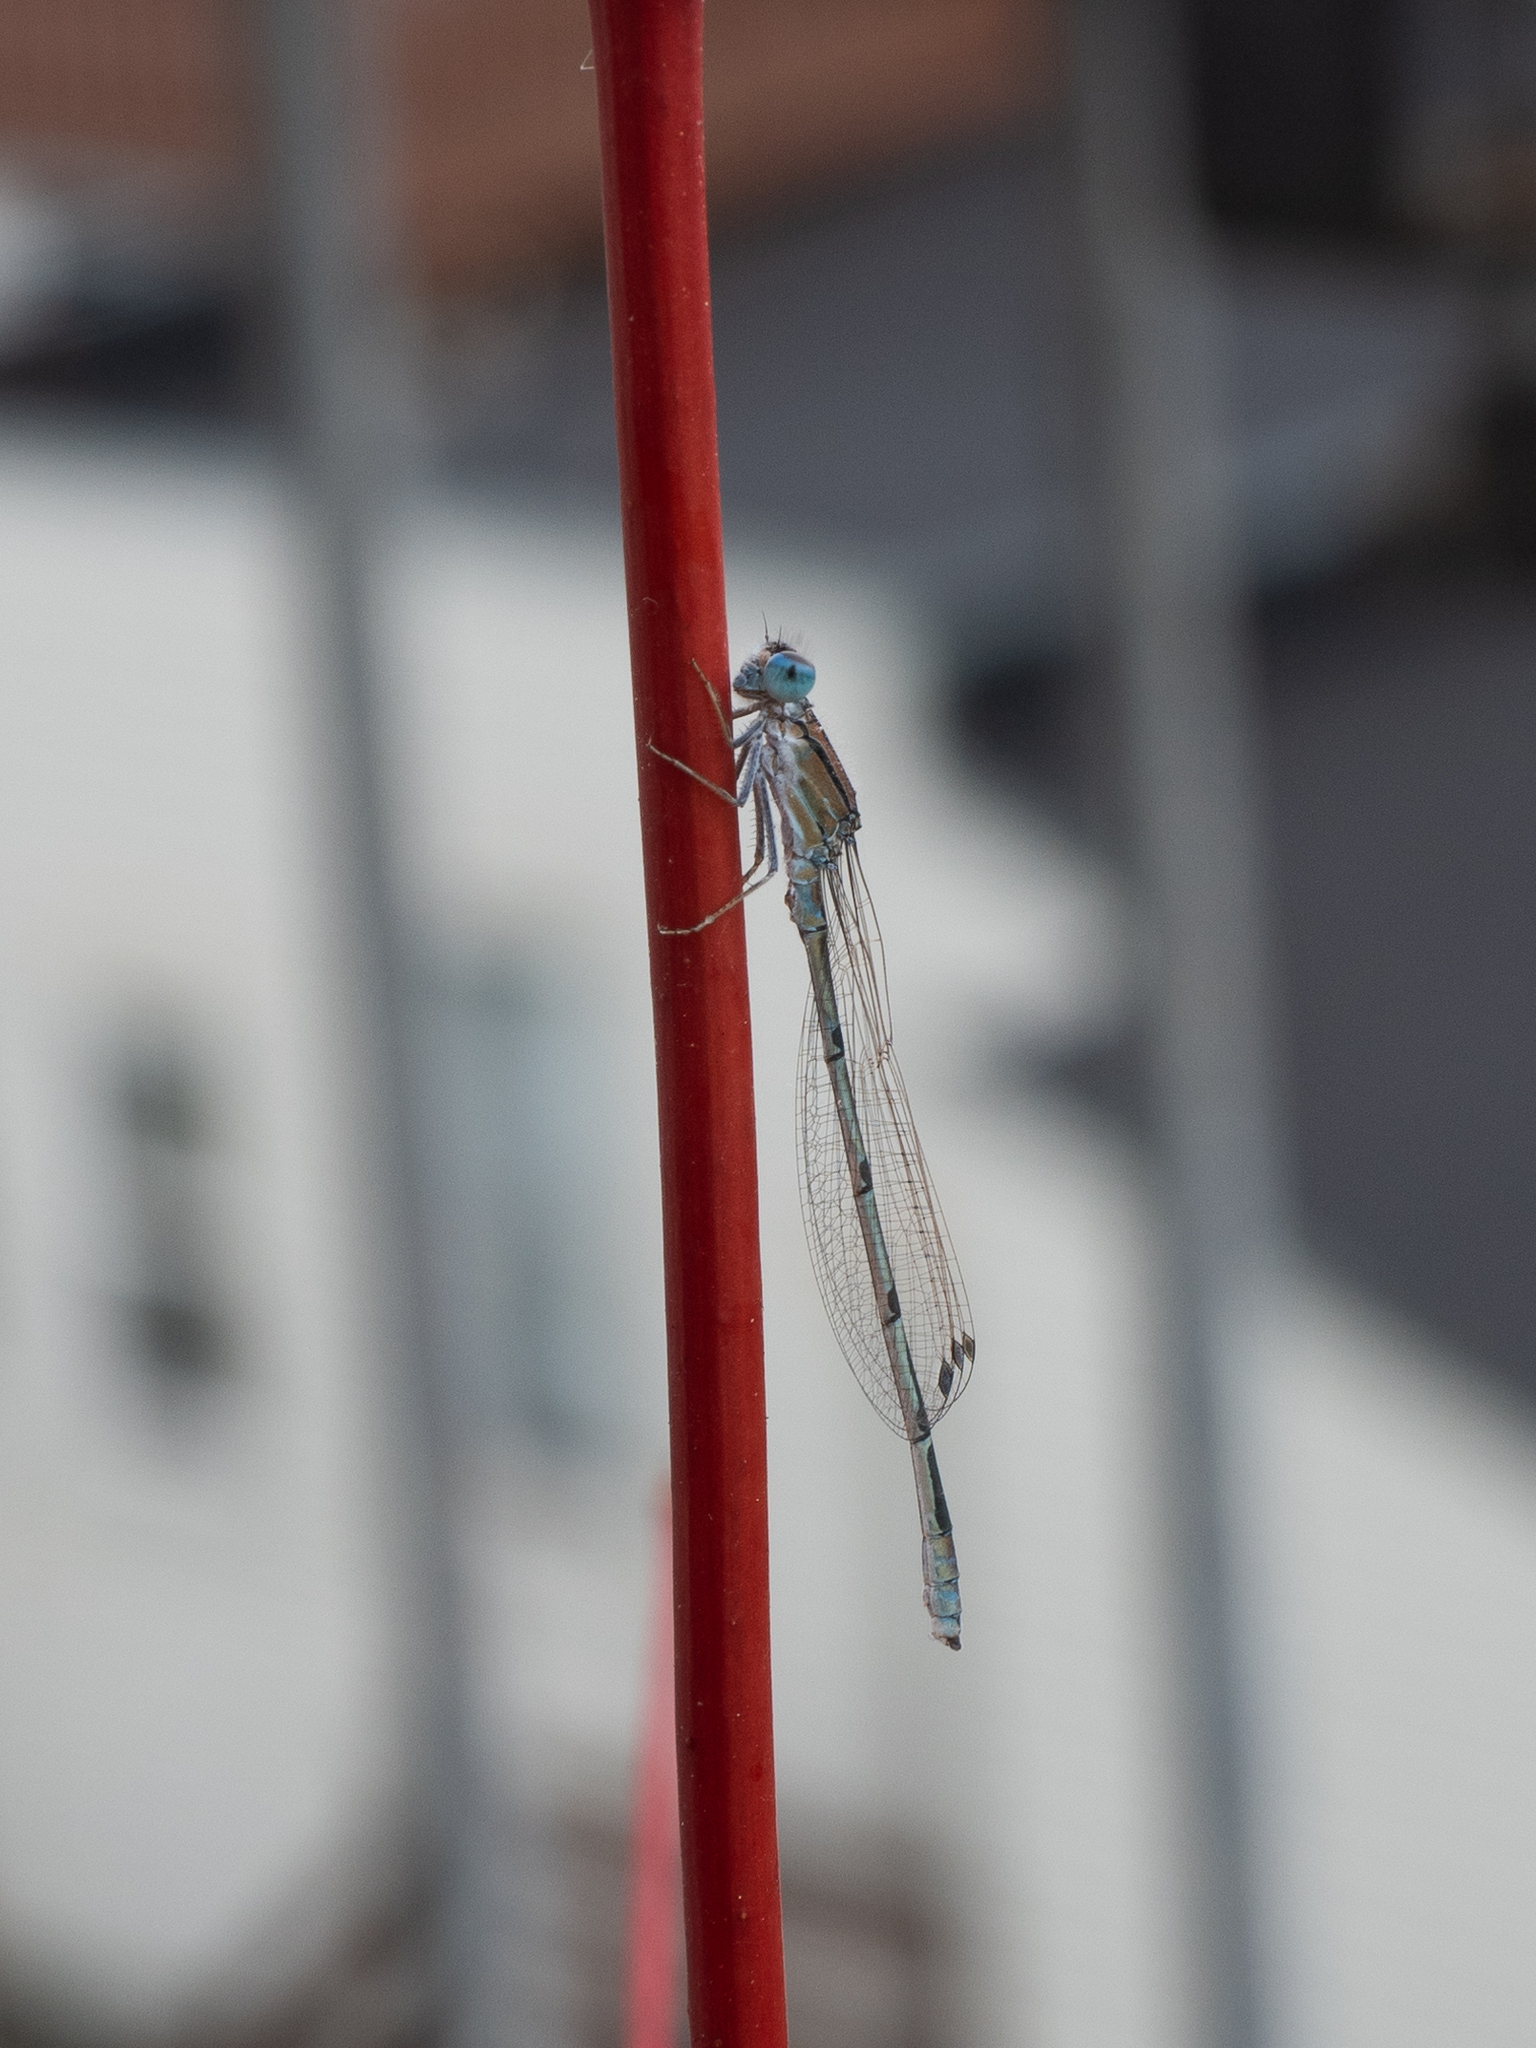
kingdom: Animalia
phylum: Arthropoda
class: Insecta
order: Odonata
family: Coenagrionidae
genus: Enallagma
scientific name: Enallagma civile
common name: Damselfly
